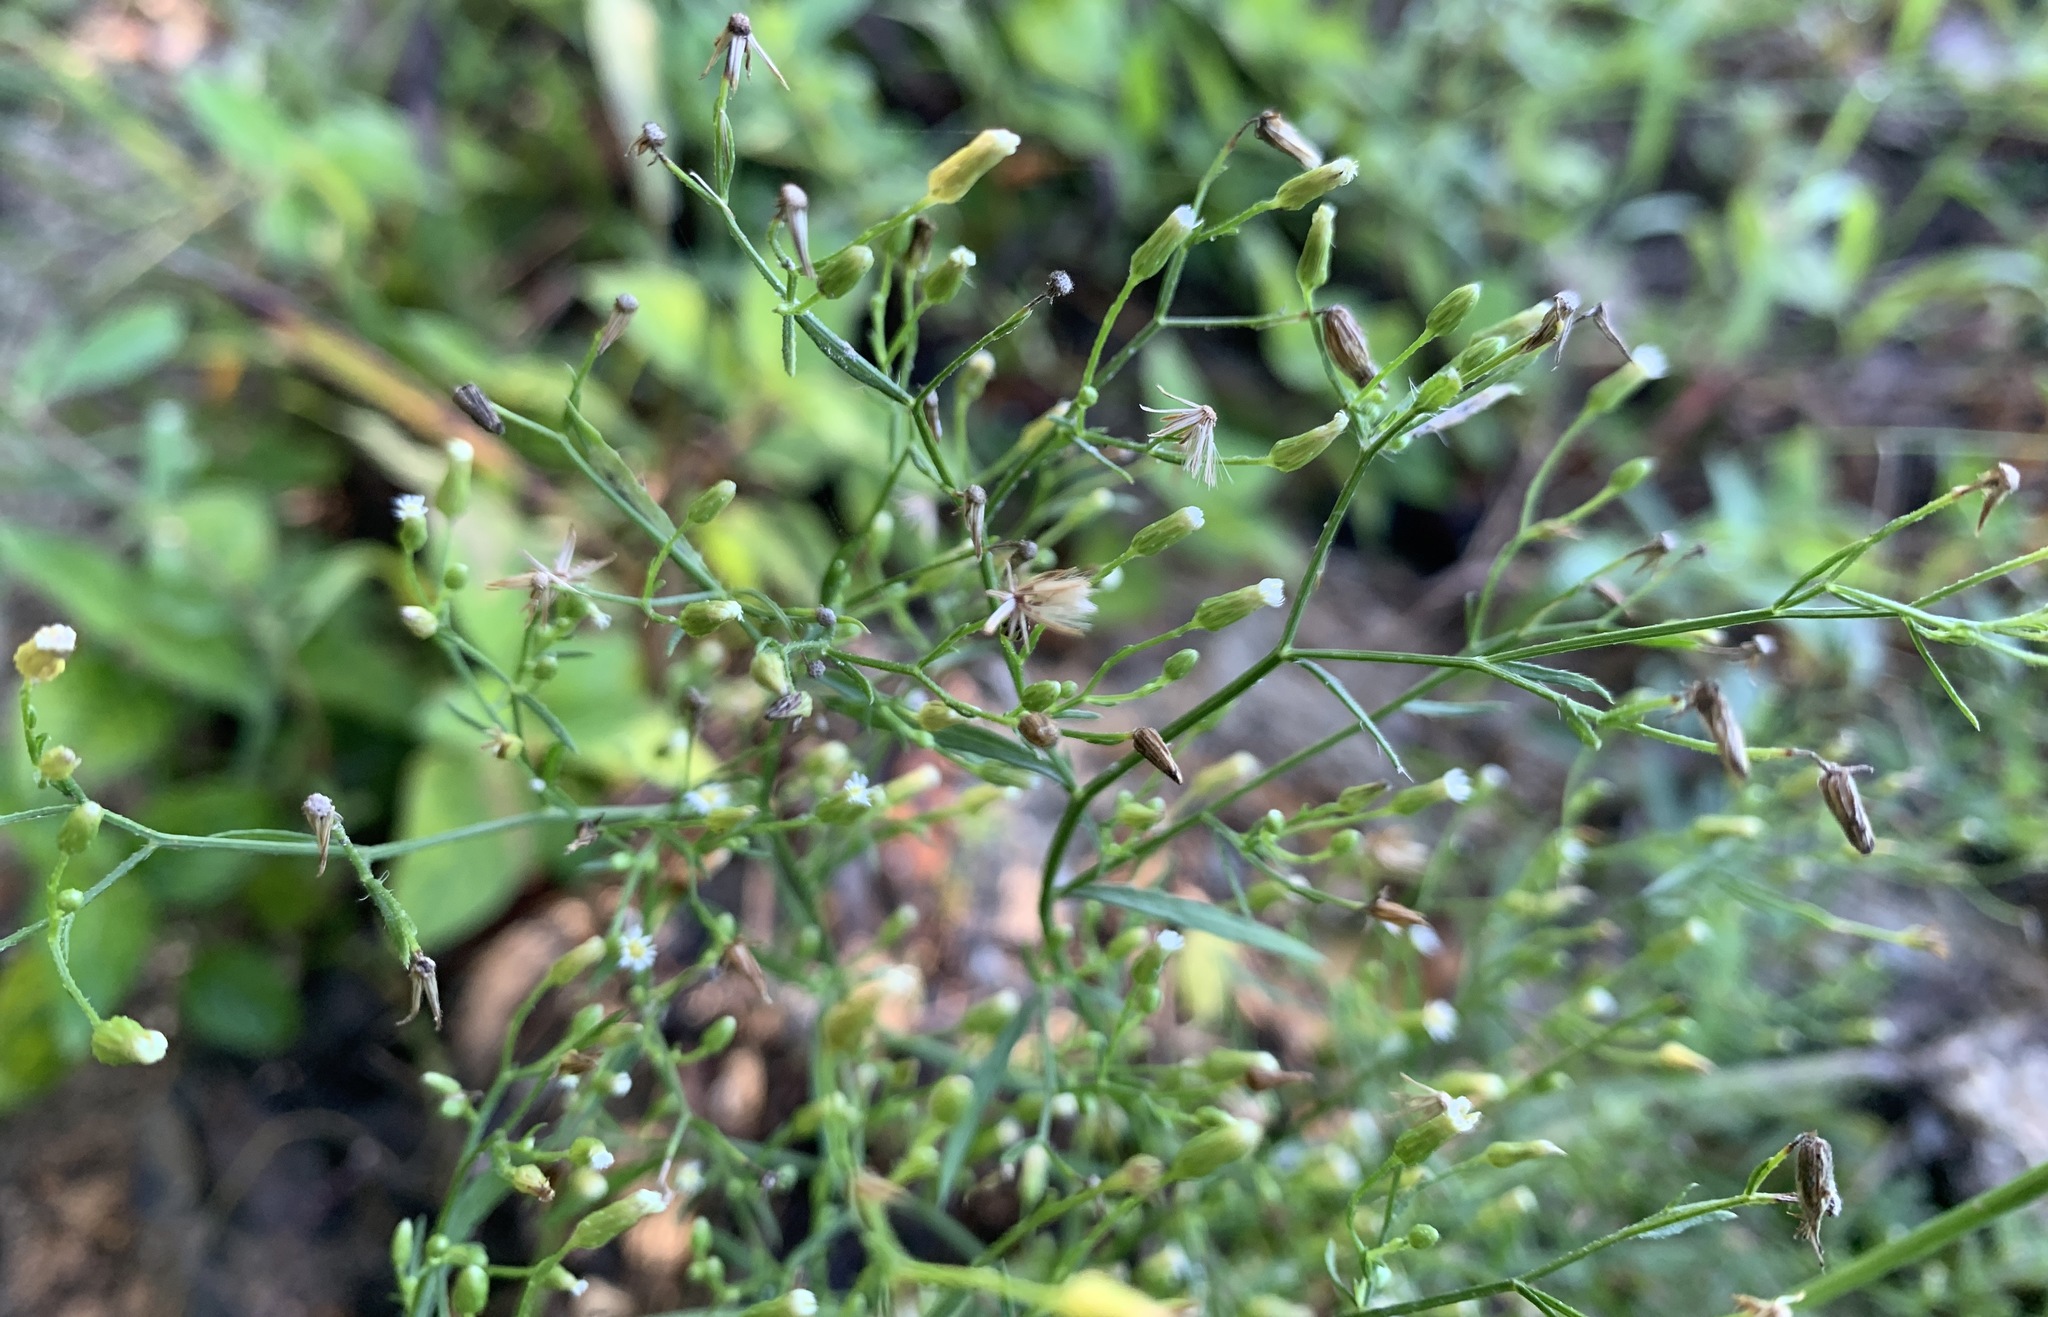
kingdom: Plantae
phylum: Tracheophyta
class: Magnoliopsida
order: Asterales
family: Asteraceae
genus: Erigeron
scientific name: Erigeron canadensis
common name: Canadian fleabane
